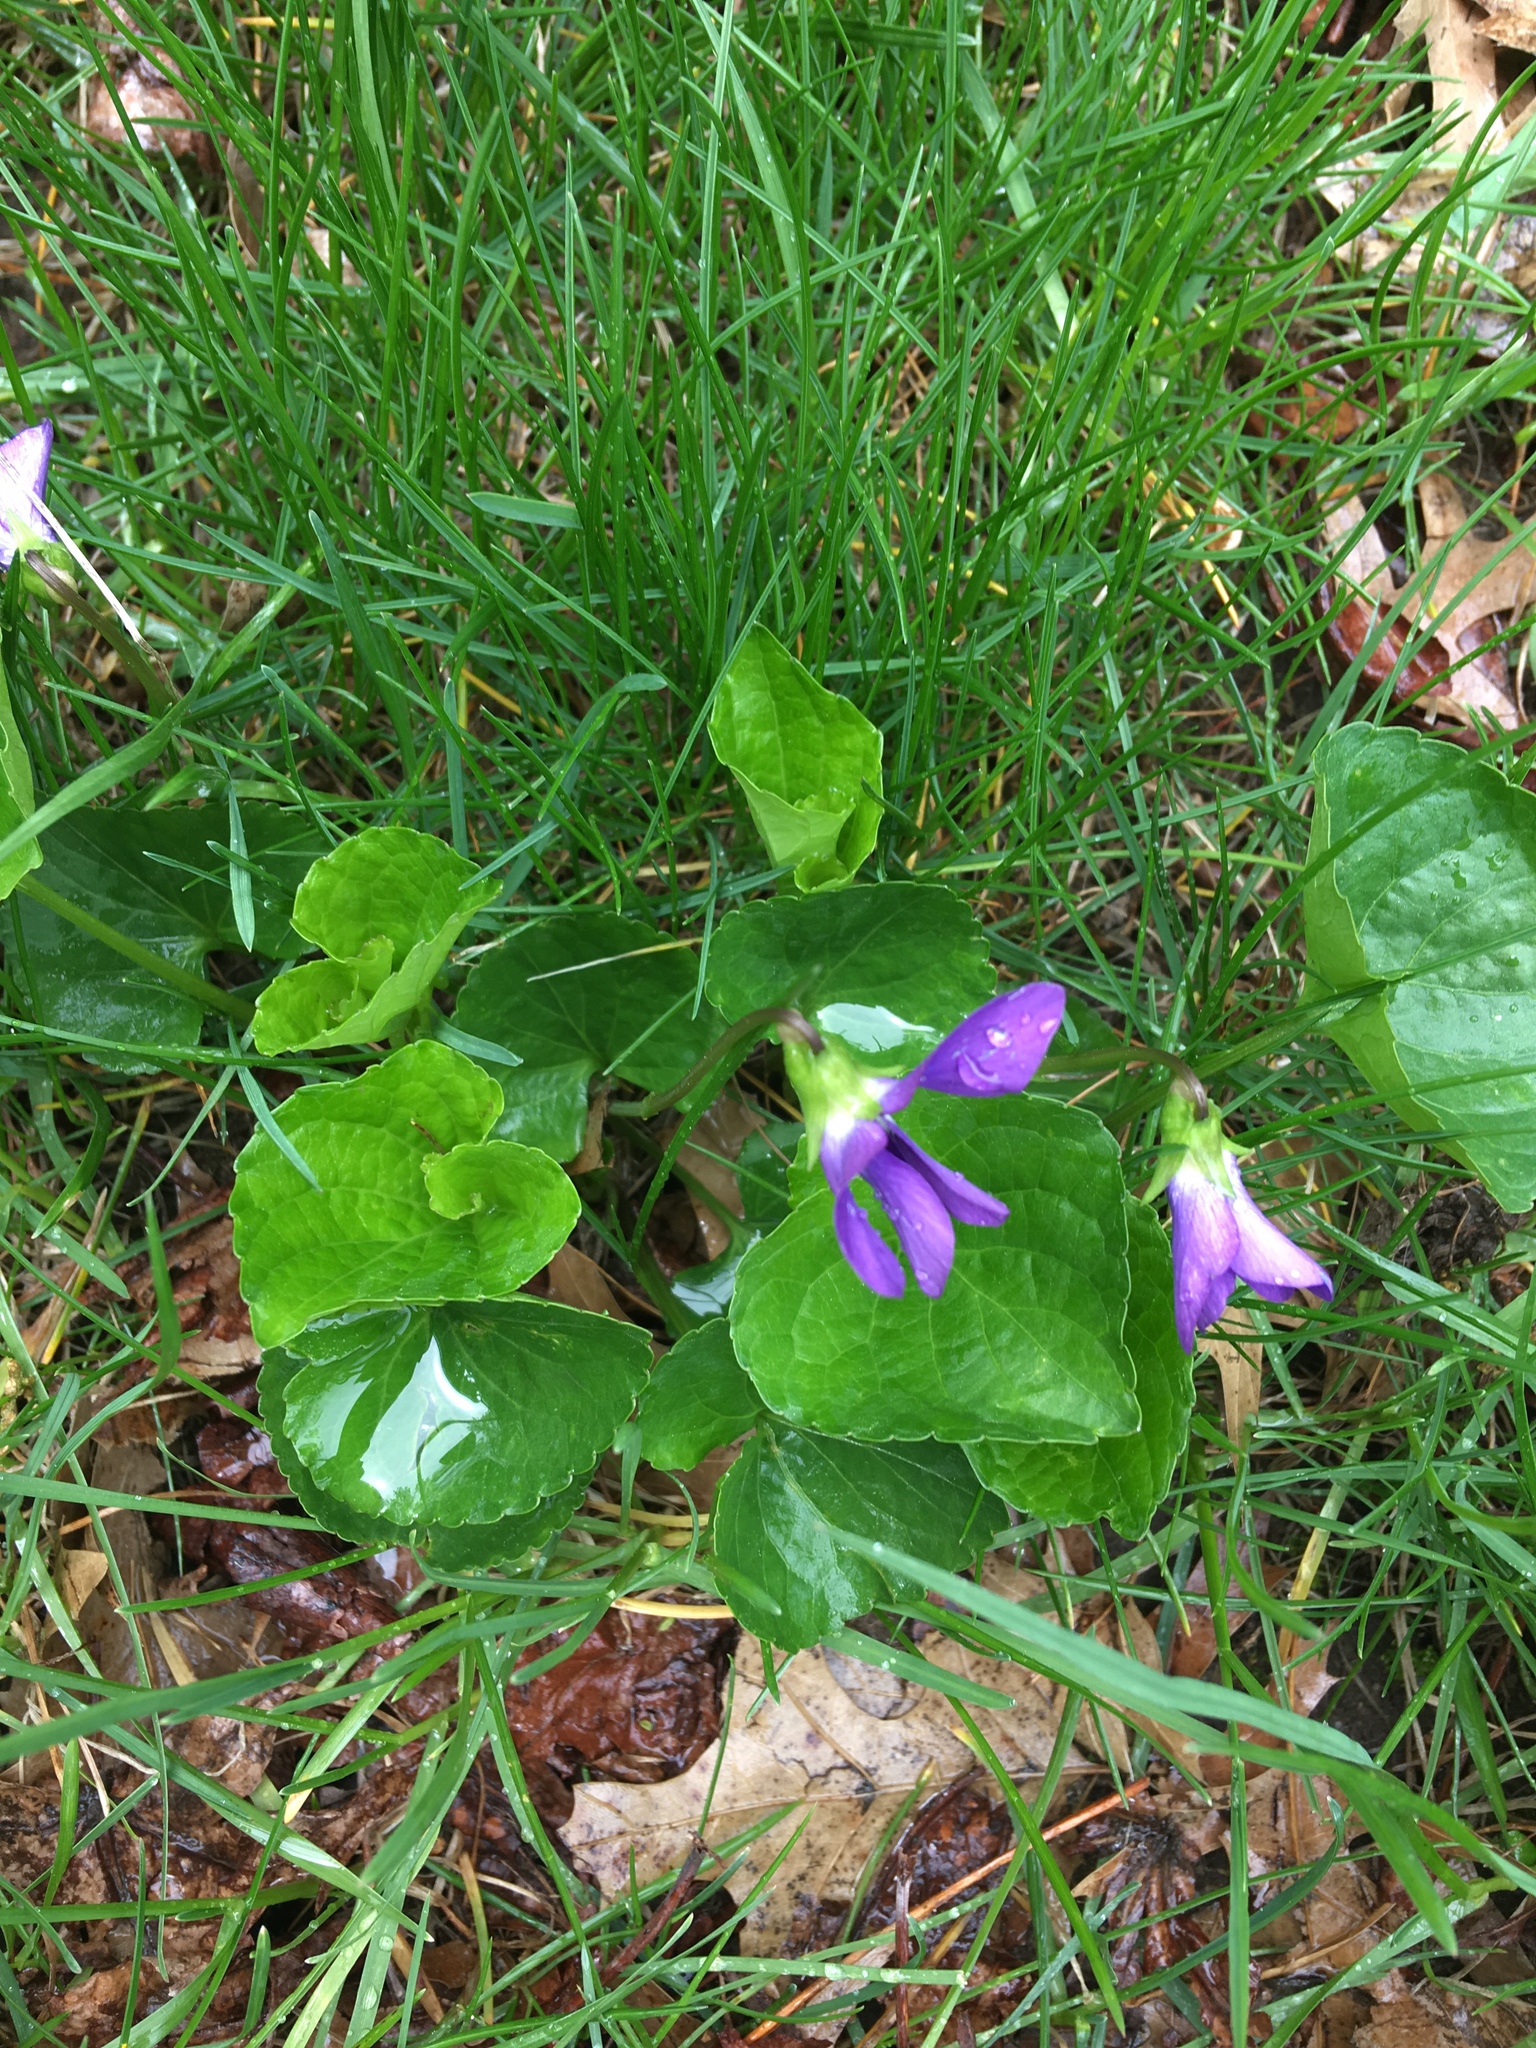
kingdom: Plantae
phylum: Tracheophyta
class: Magnoliopsida
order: Malpighiales
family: Violaceae
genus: Viola
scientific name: Viola sororia
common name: Dooryard violet
